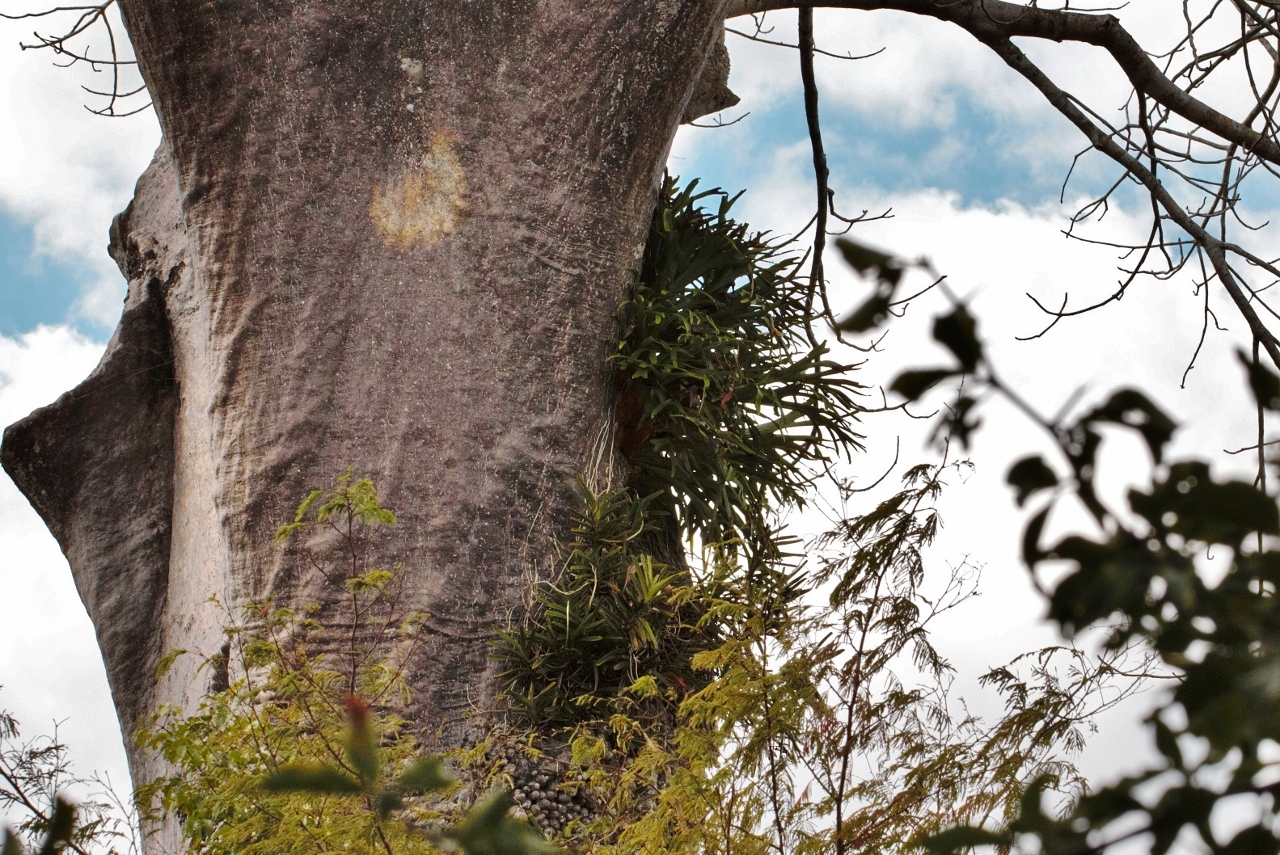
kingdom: Plantae
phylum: Tracheophyta
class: Liliopsida
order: Asparagales
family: Orchidaceae
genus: Acampe
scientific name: Acampe pachyglossa
